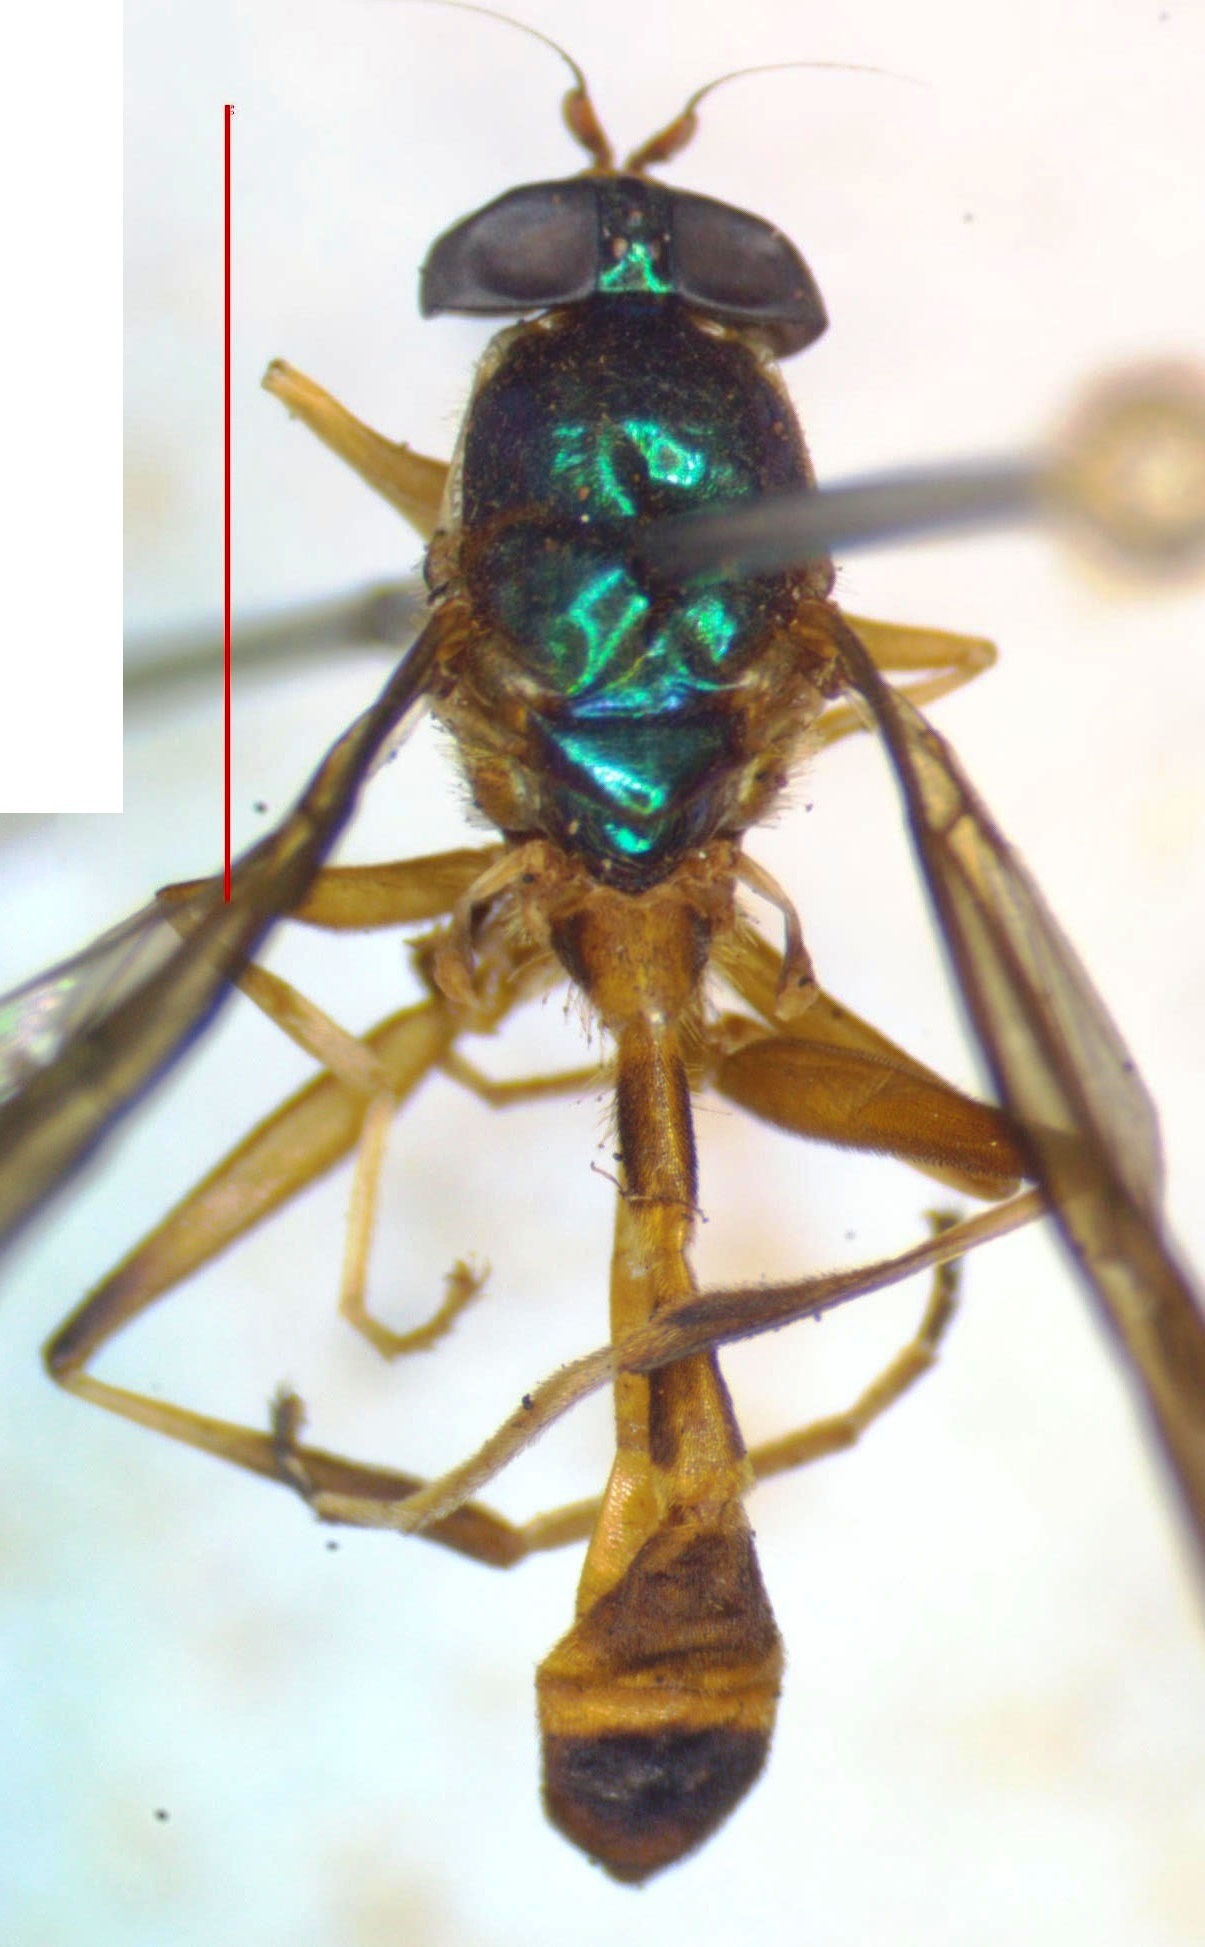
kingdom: Animalia
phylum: Arthropoda
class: Insecta
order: Diptera
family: Stratiomyidae
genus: Merosargus
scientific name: Merosargus bequaerti
